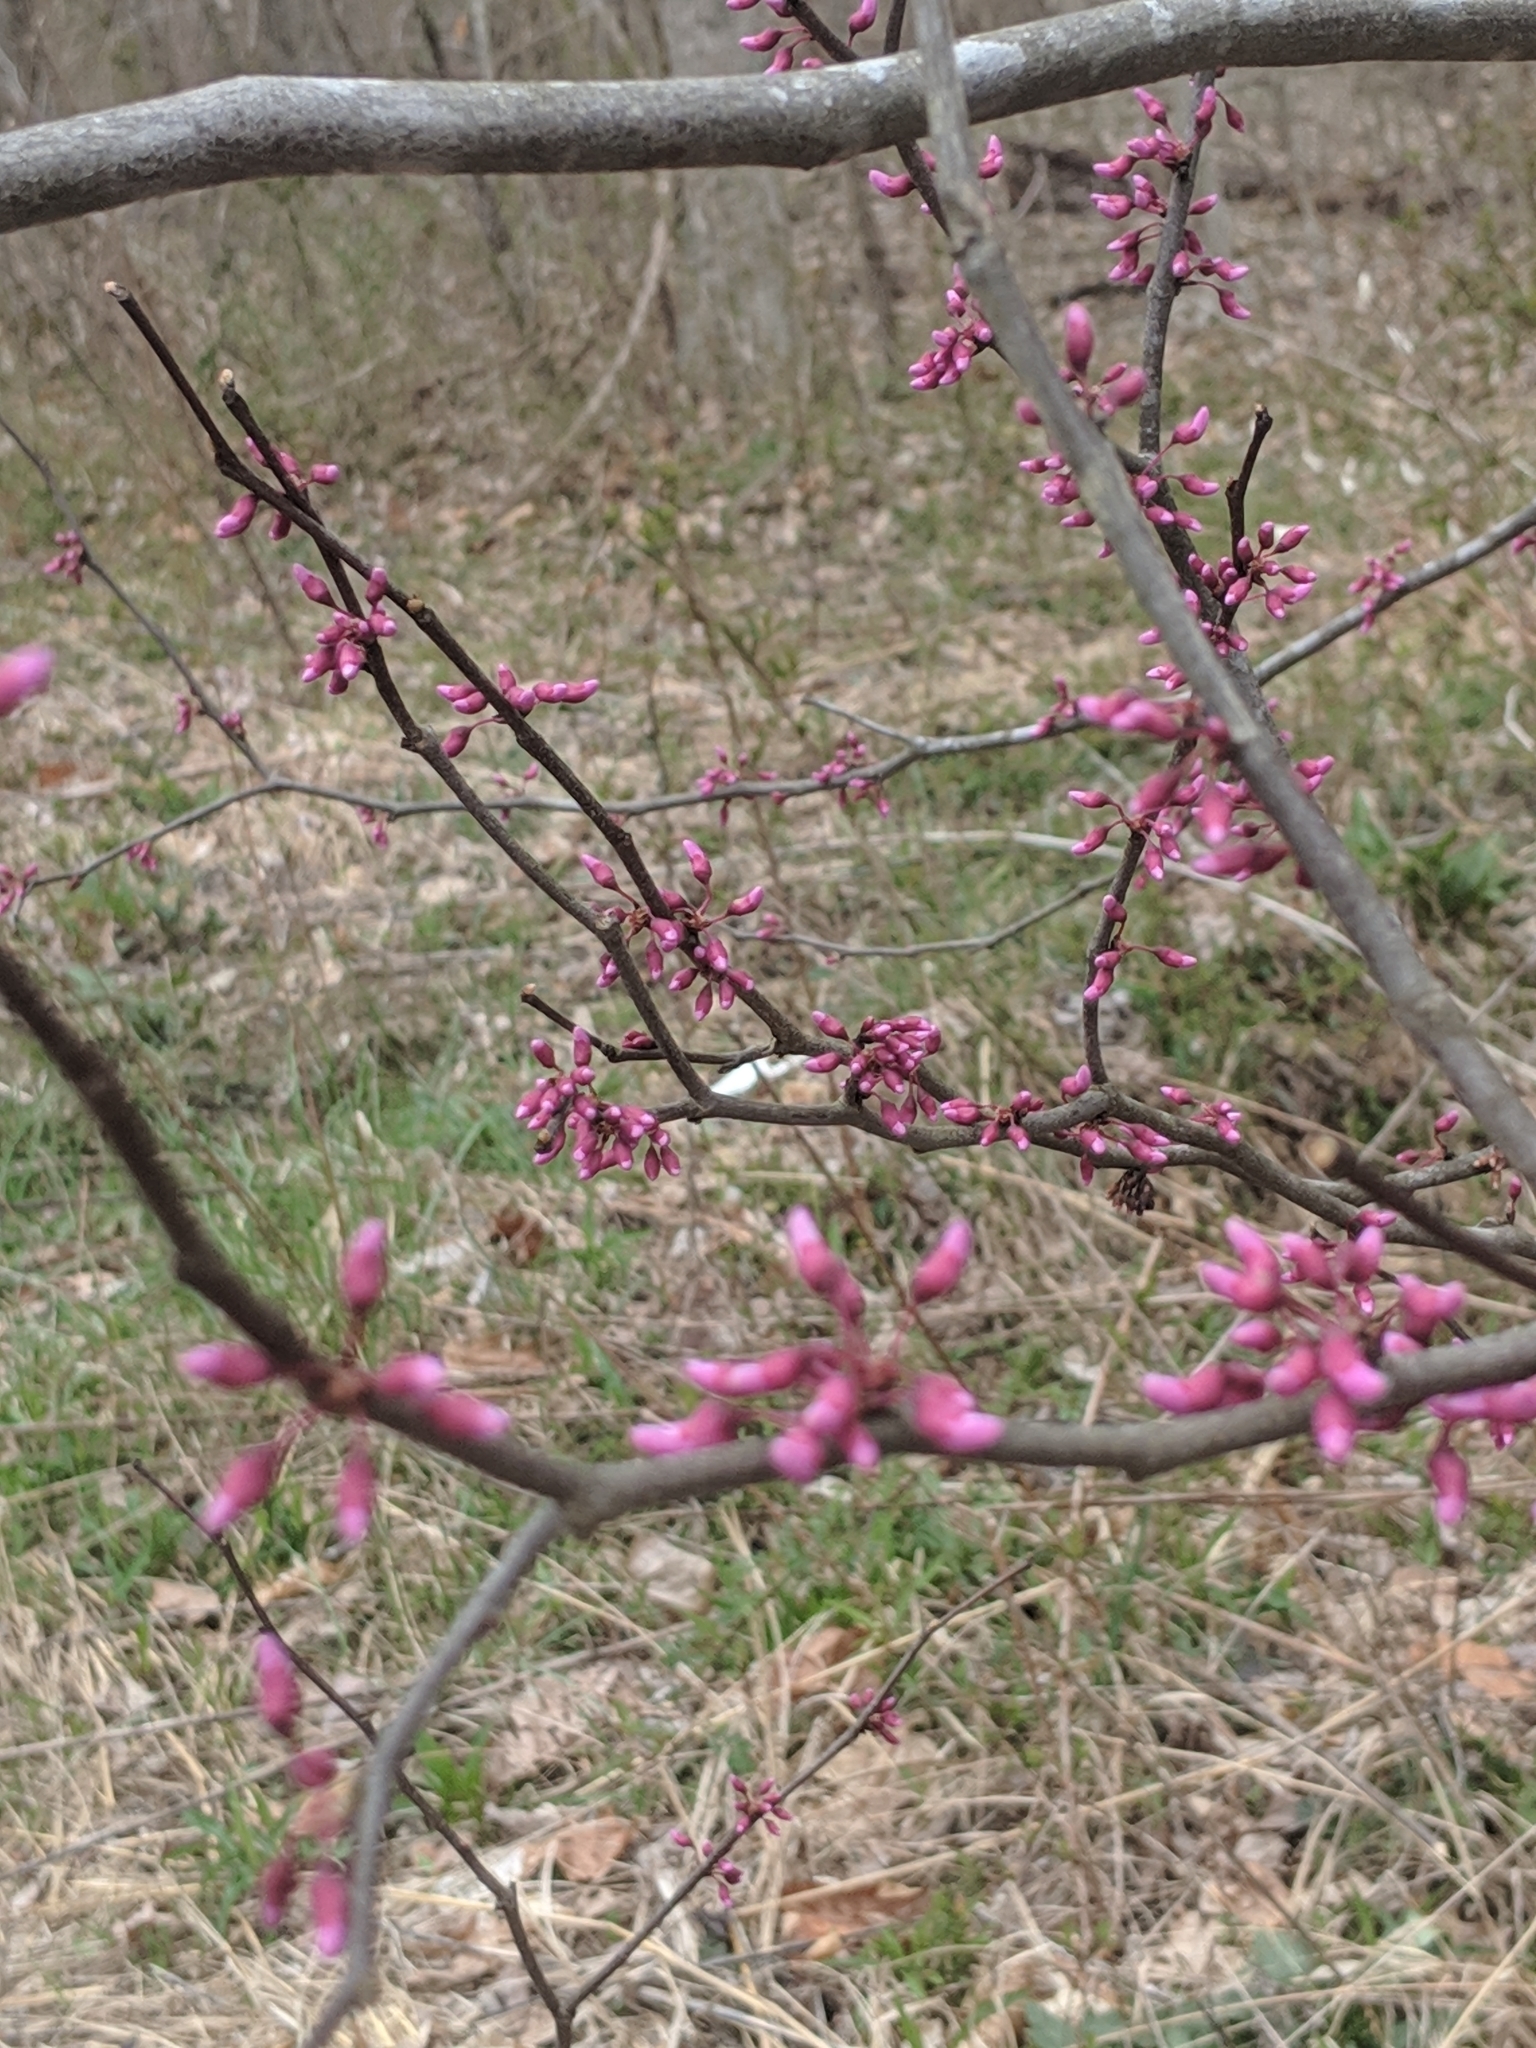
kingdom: Plantae
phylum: Tracheophyta
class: Magnoliopsida
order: Fabales
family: Fabaceae
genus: Cercis
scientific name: Cercis canadensis
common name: Eastern redbud
